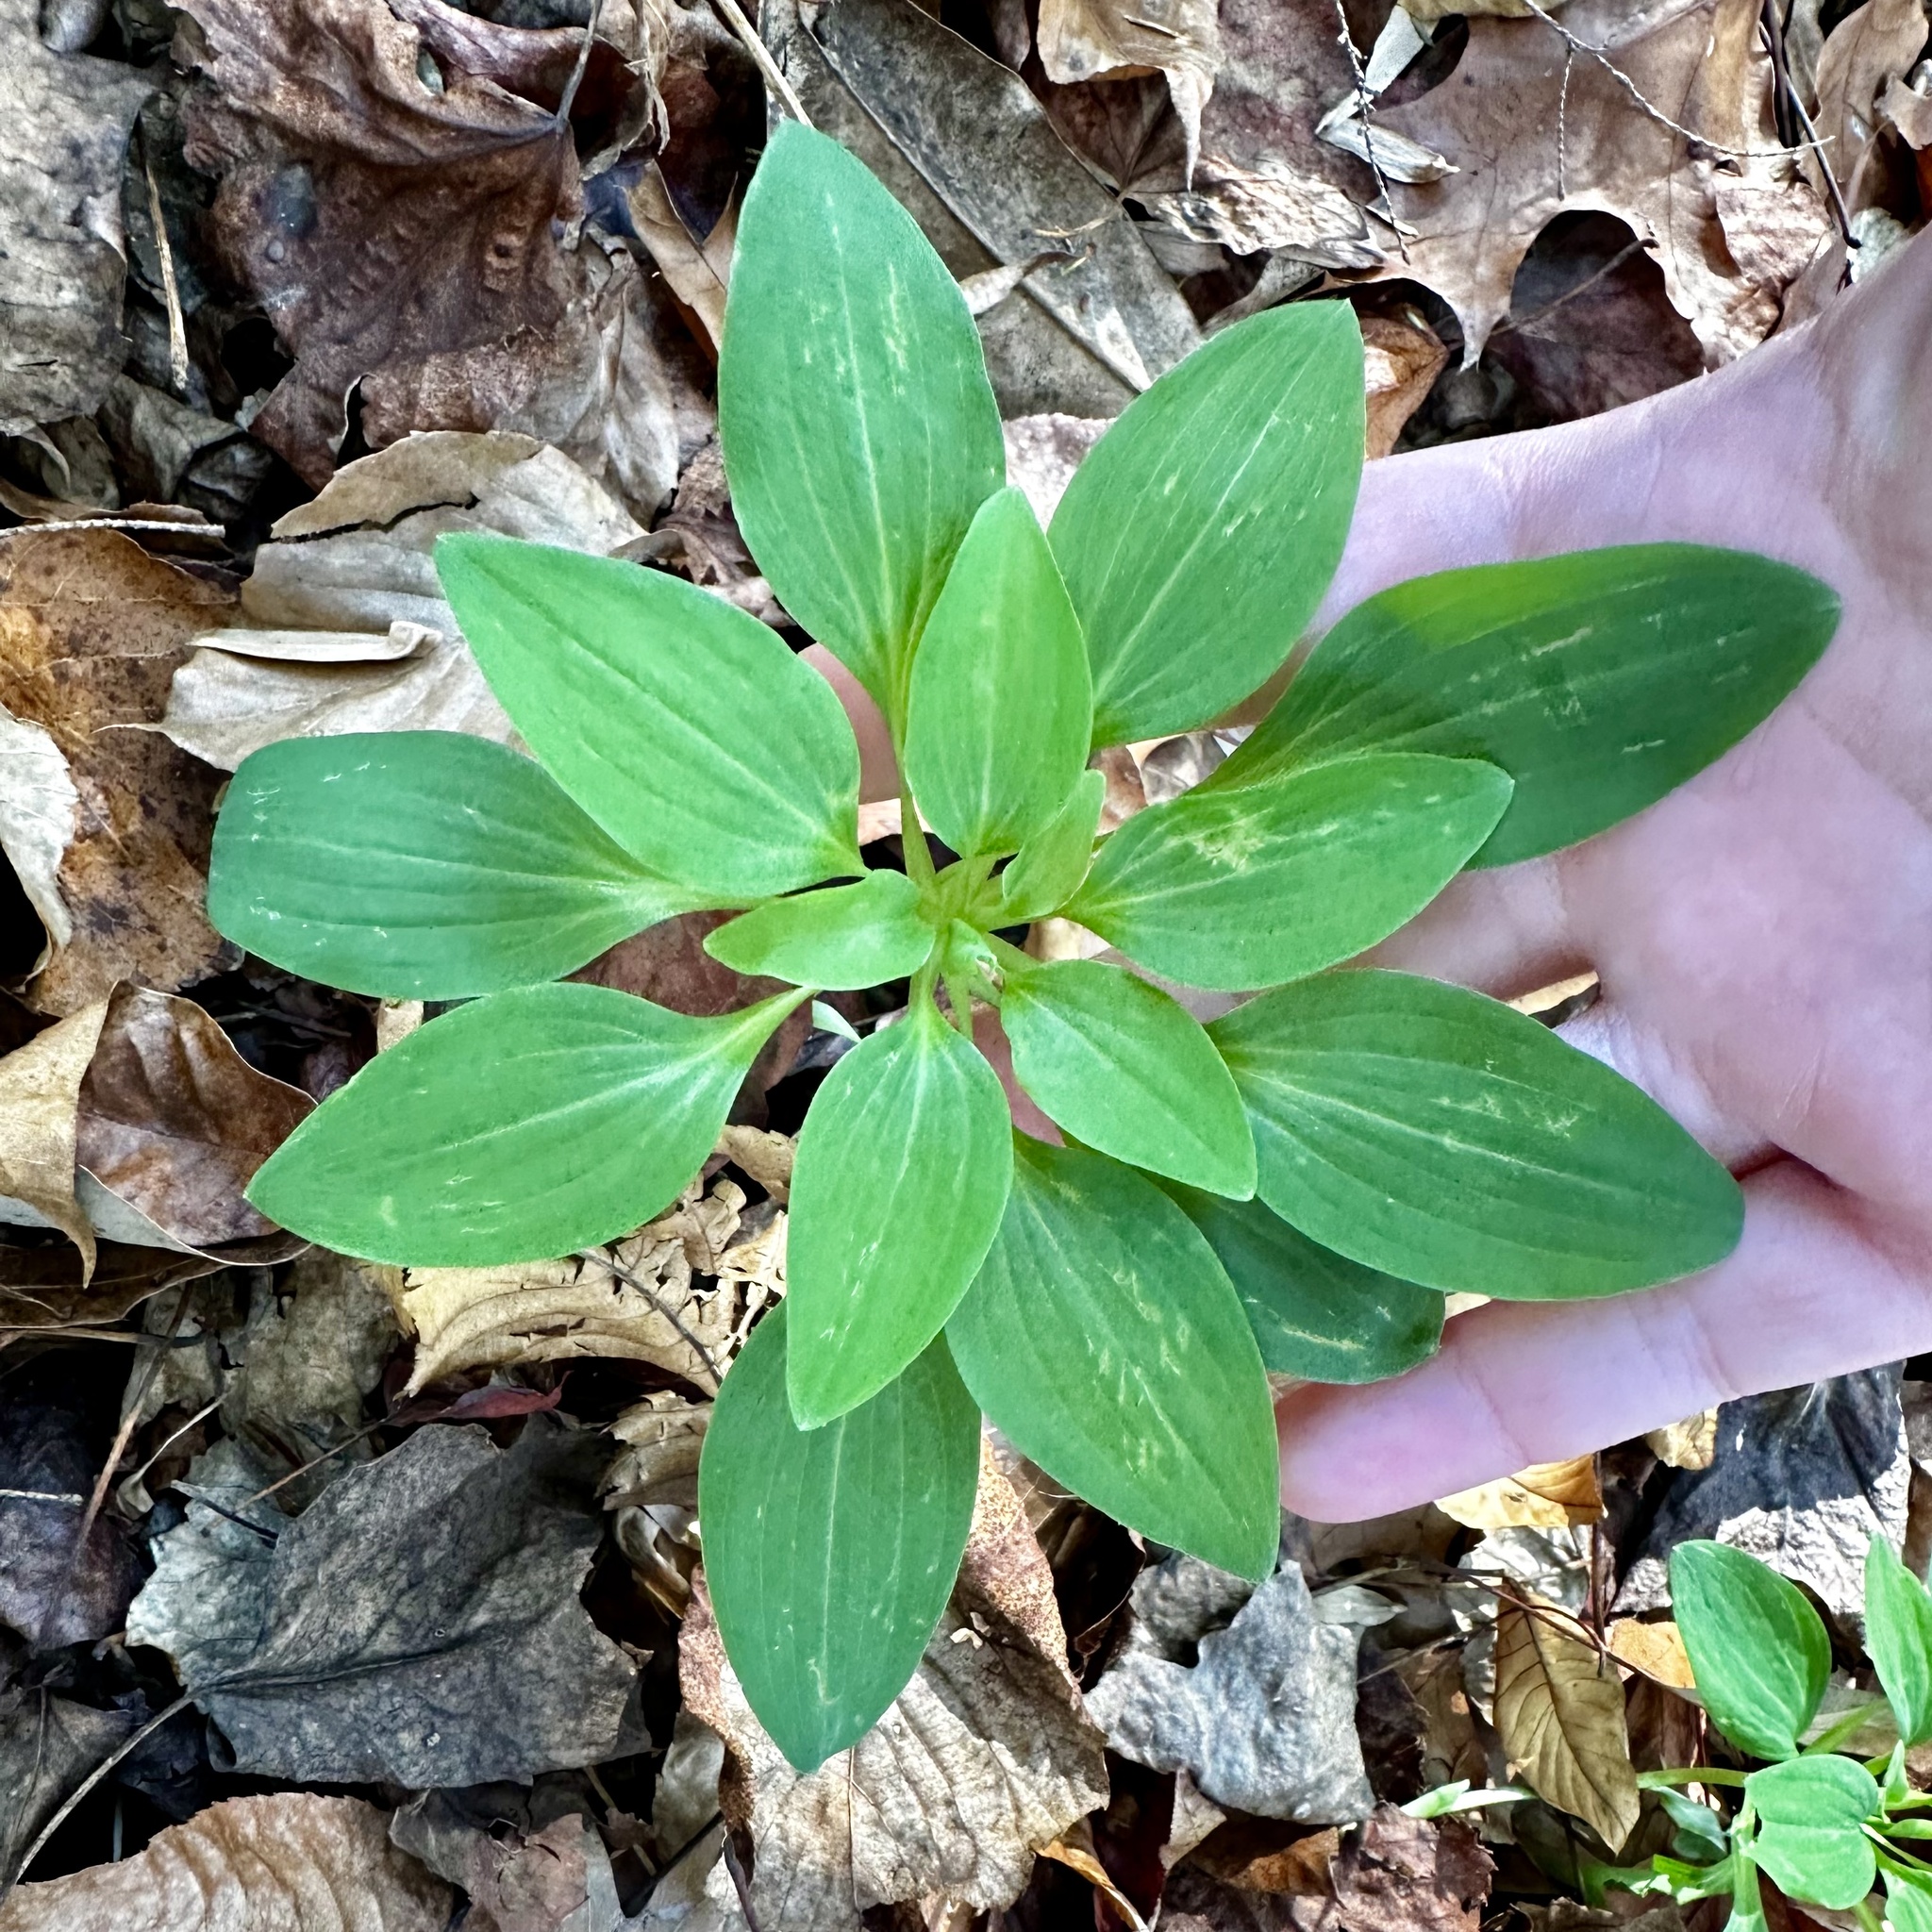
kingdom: Plantae
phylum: Tracheophyta
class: Liliopsida
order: Liliales
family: Alstroemeriaceae
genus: Alstroemeria
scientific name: Alstroemeria psittacina
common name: Peruvian-lily
